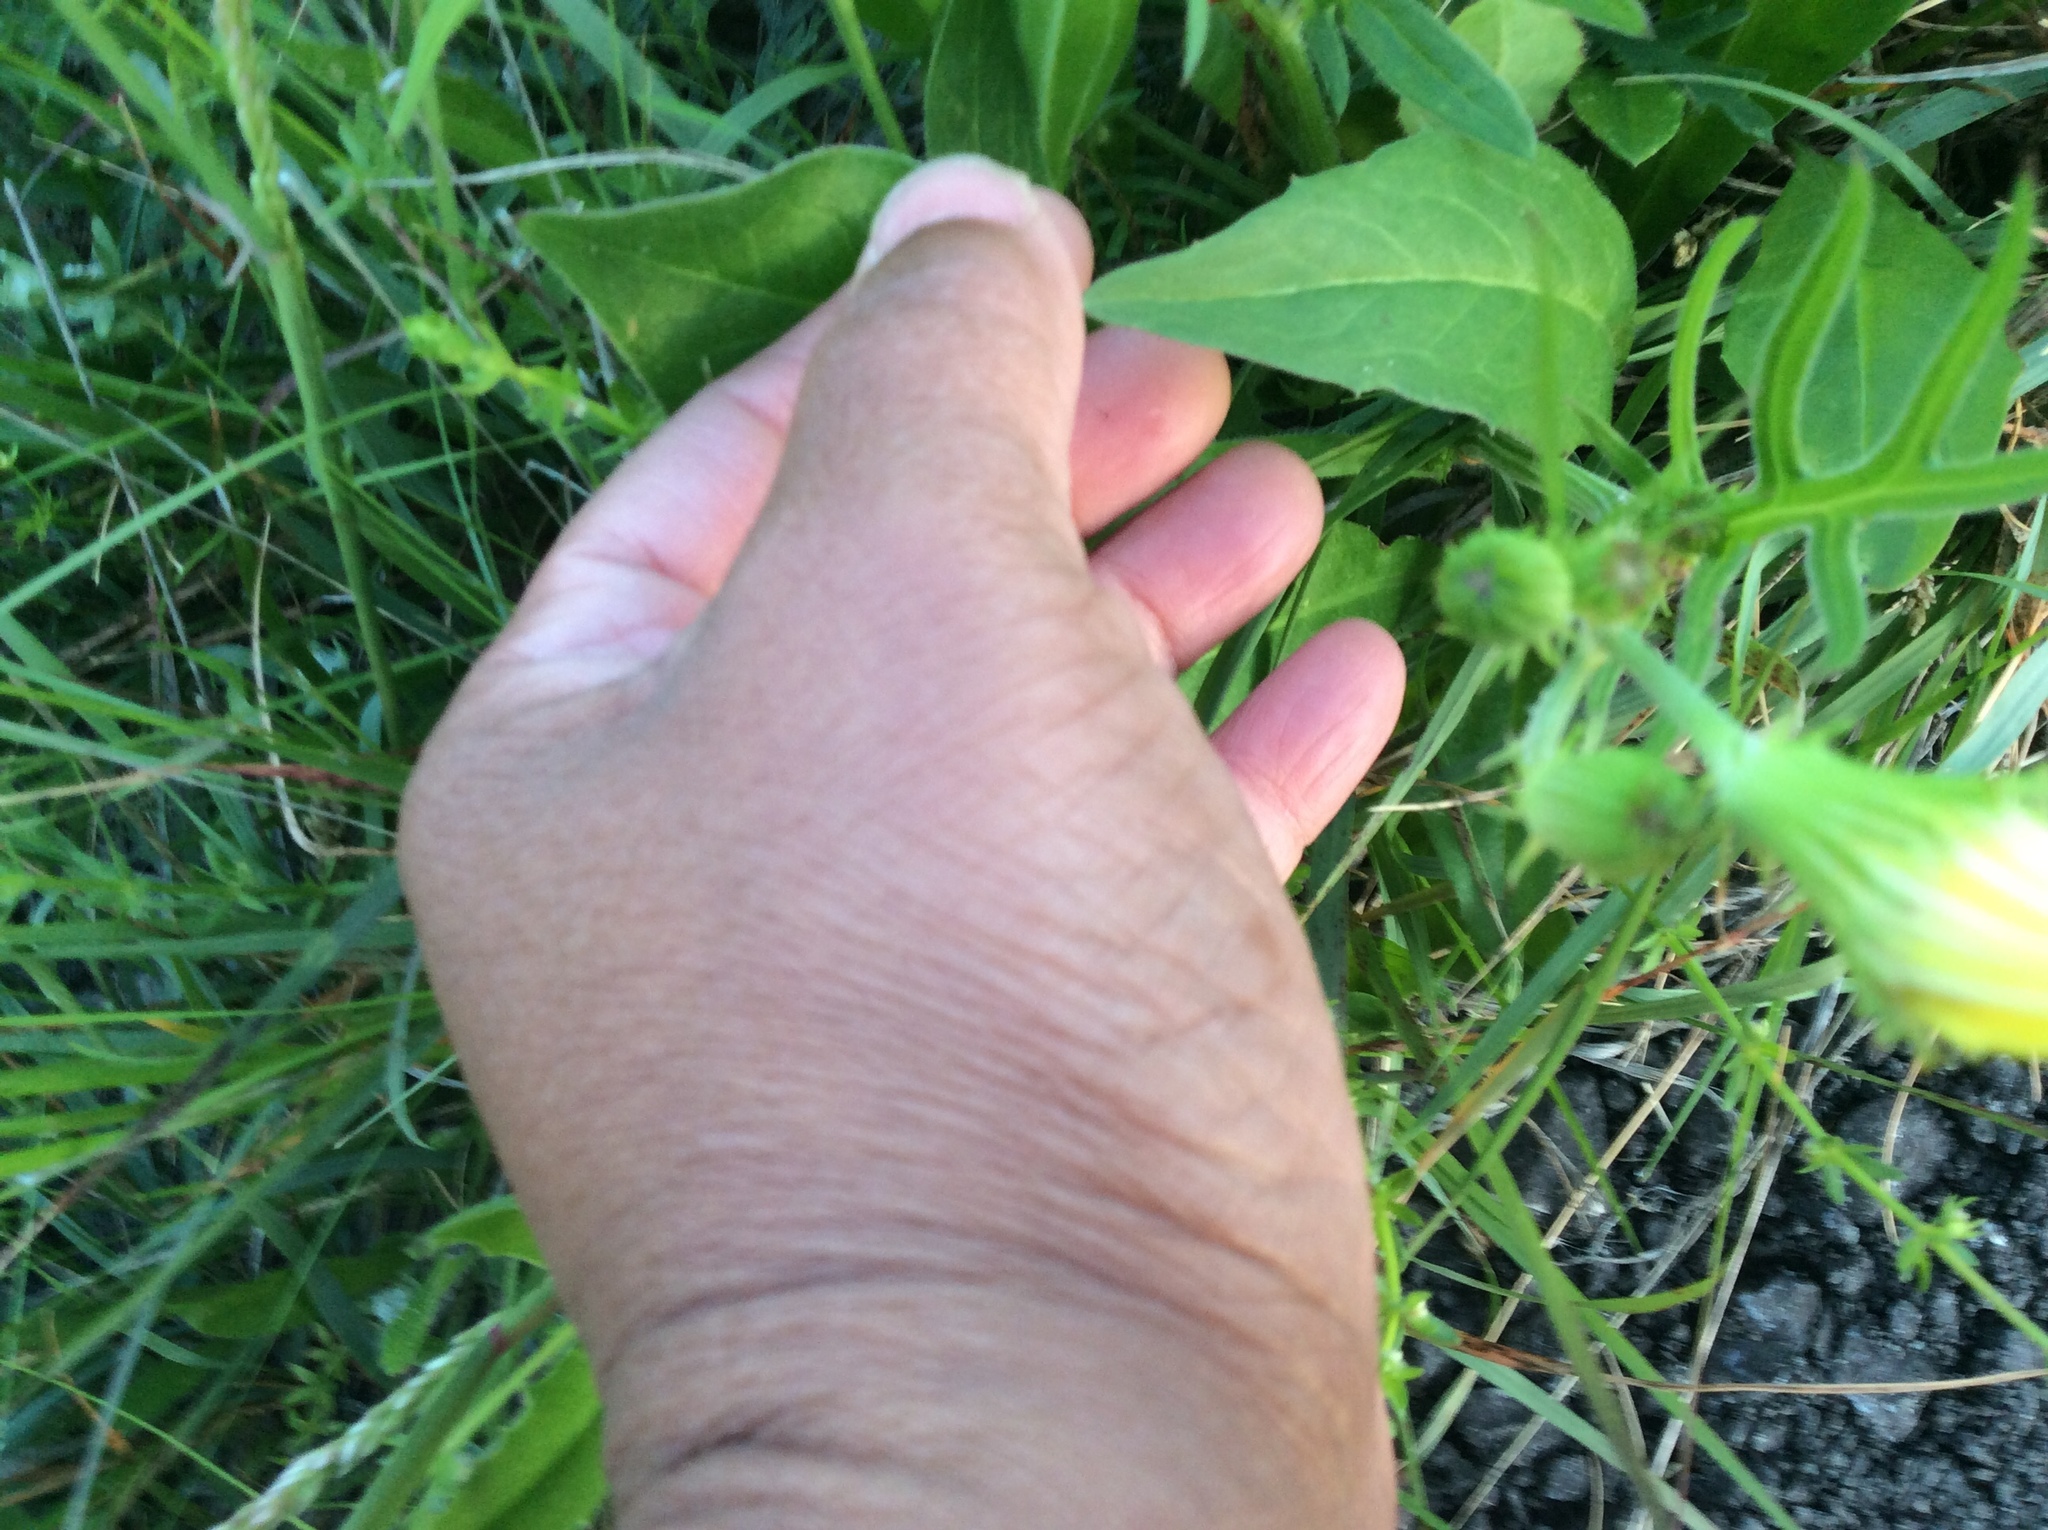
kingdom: Plantae
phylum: Tracheophyta
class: Magnoliopsida
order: Asterales
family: Asteraceae
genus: Pyrrhopappus
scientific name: Pyrrhopappus pauciflorus
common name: Texas false dandelion
